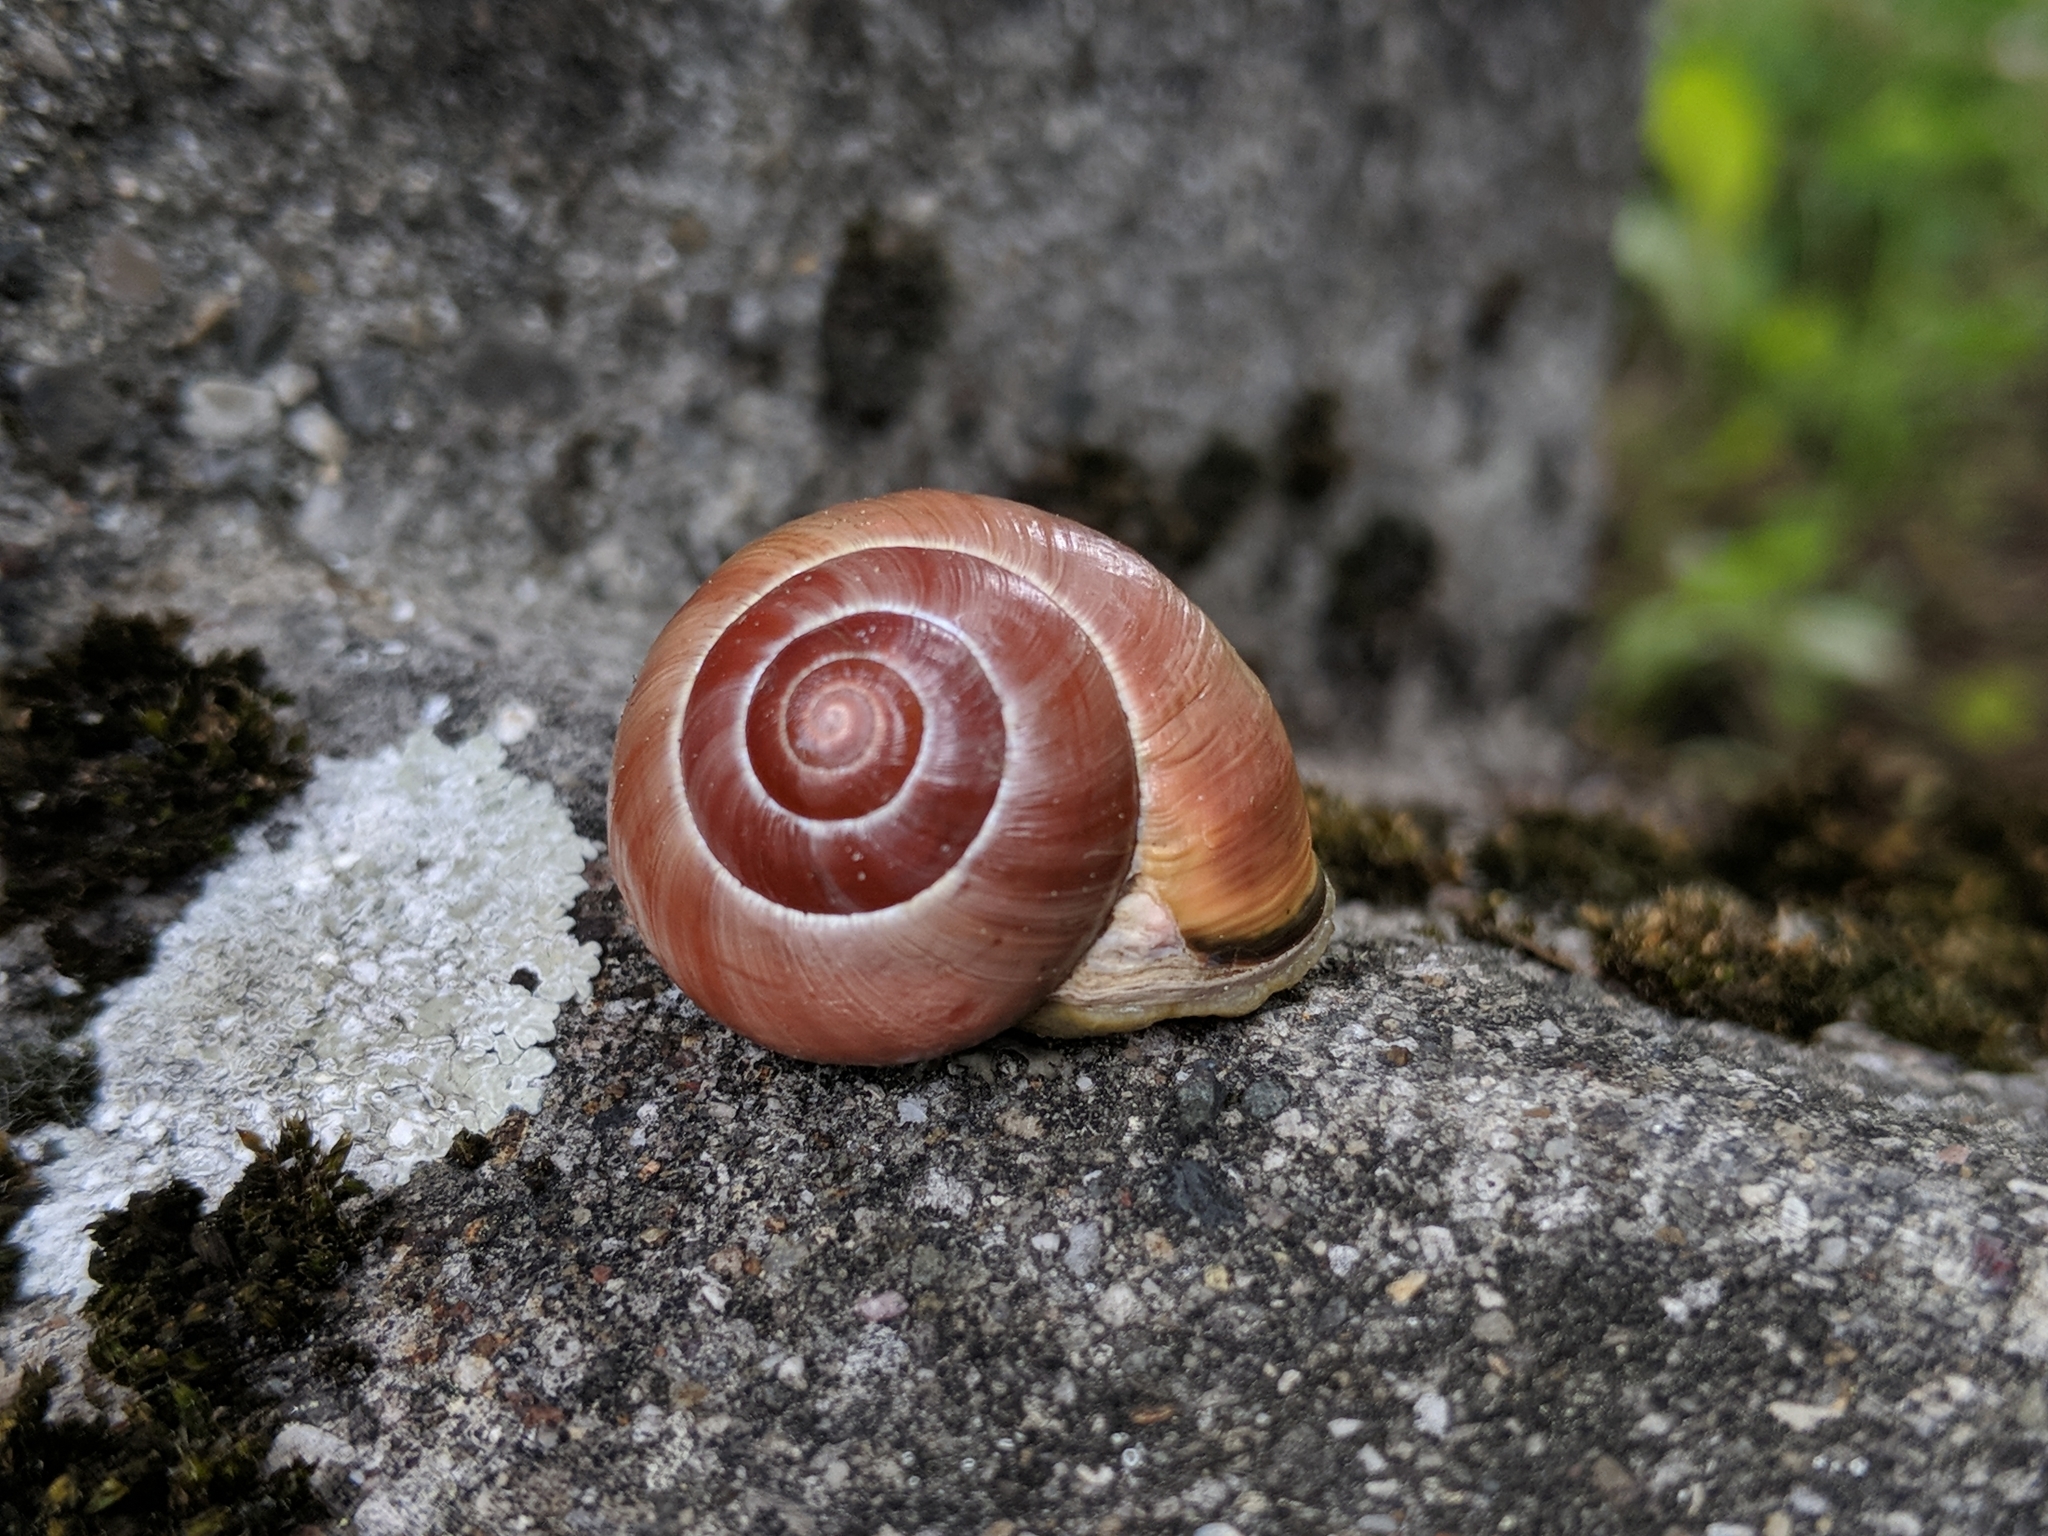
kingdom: Animalia
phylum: Mollusca
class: Gastropoda
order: Stylommatophora
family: Helicidae
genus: Cepaea
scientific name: Cepaea nemoralis
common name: Grovesnail
